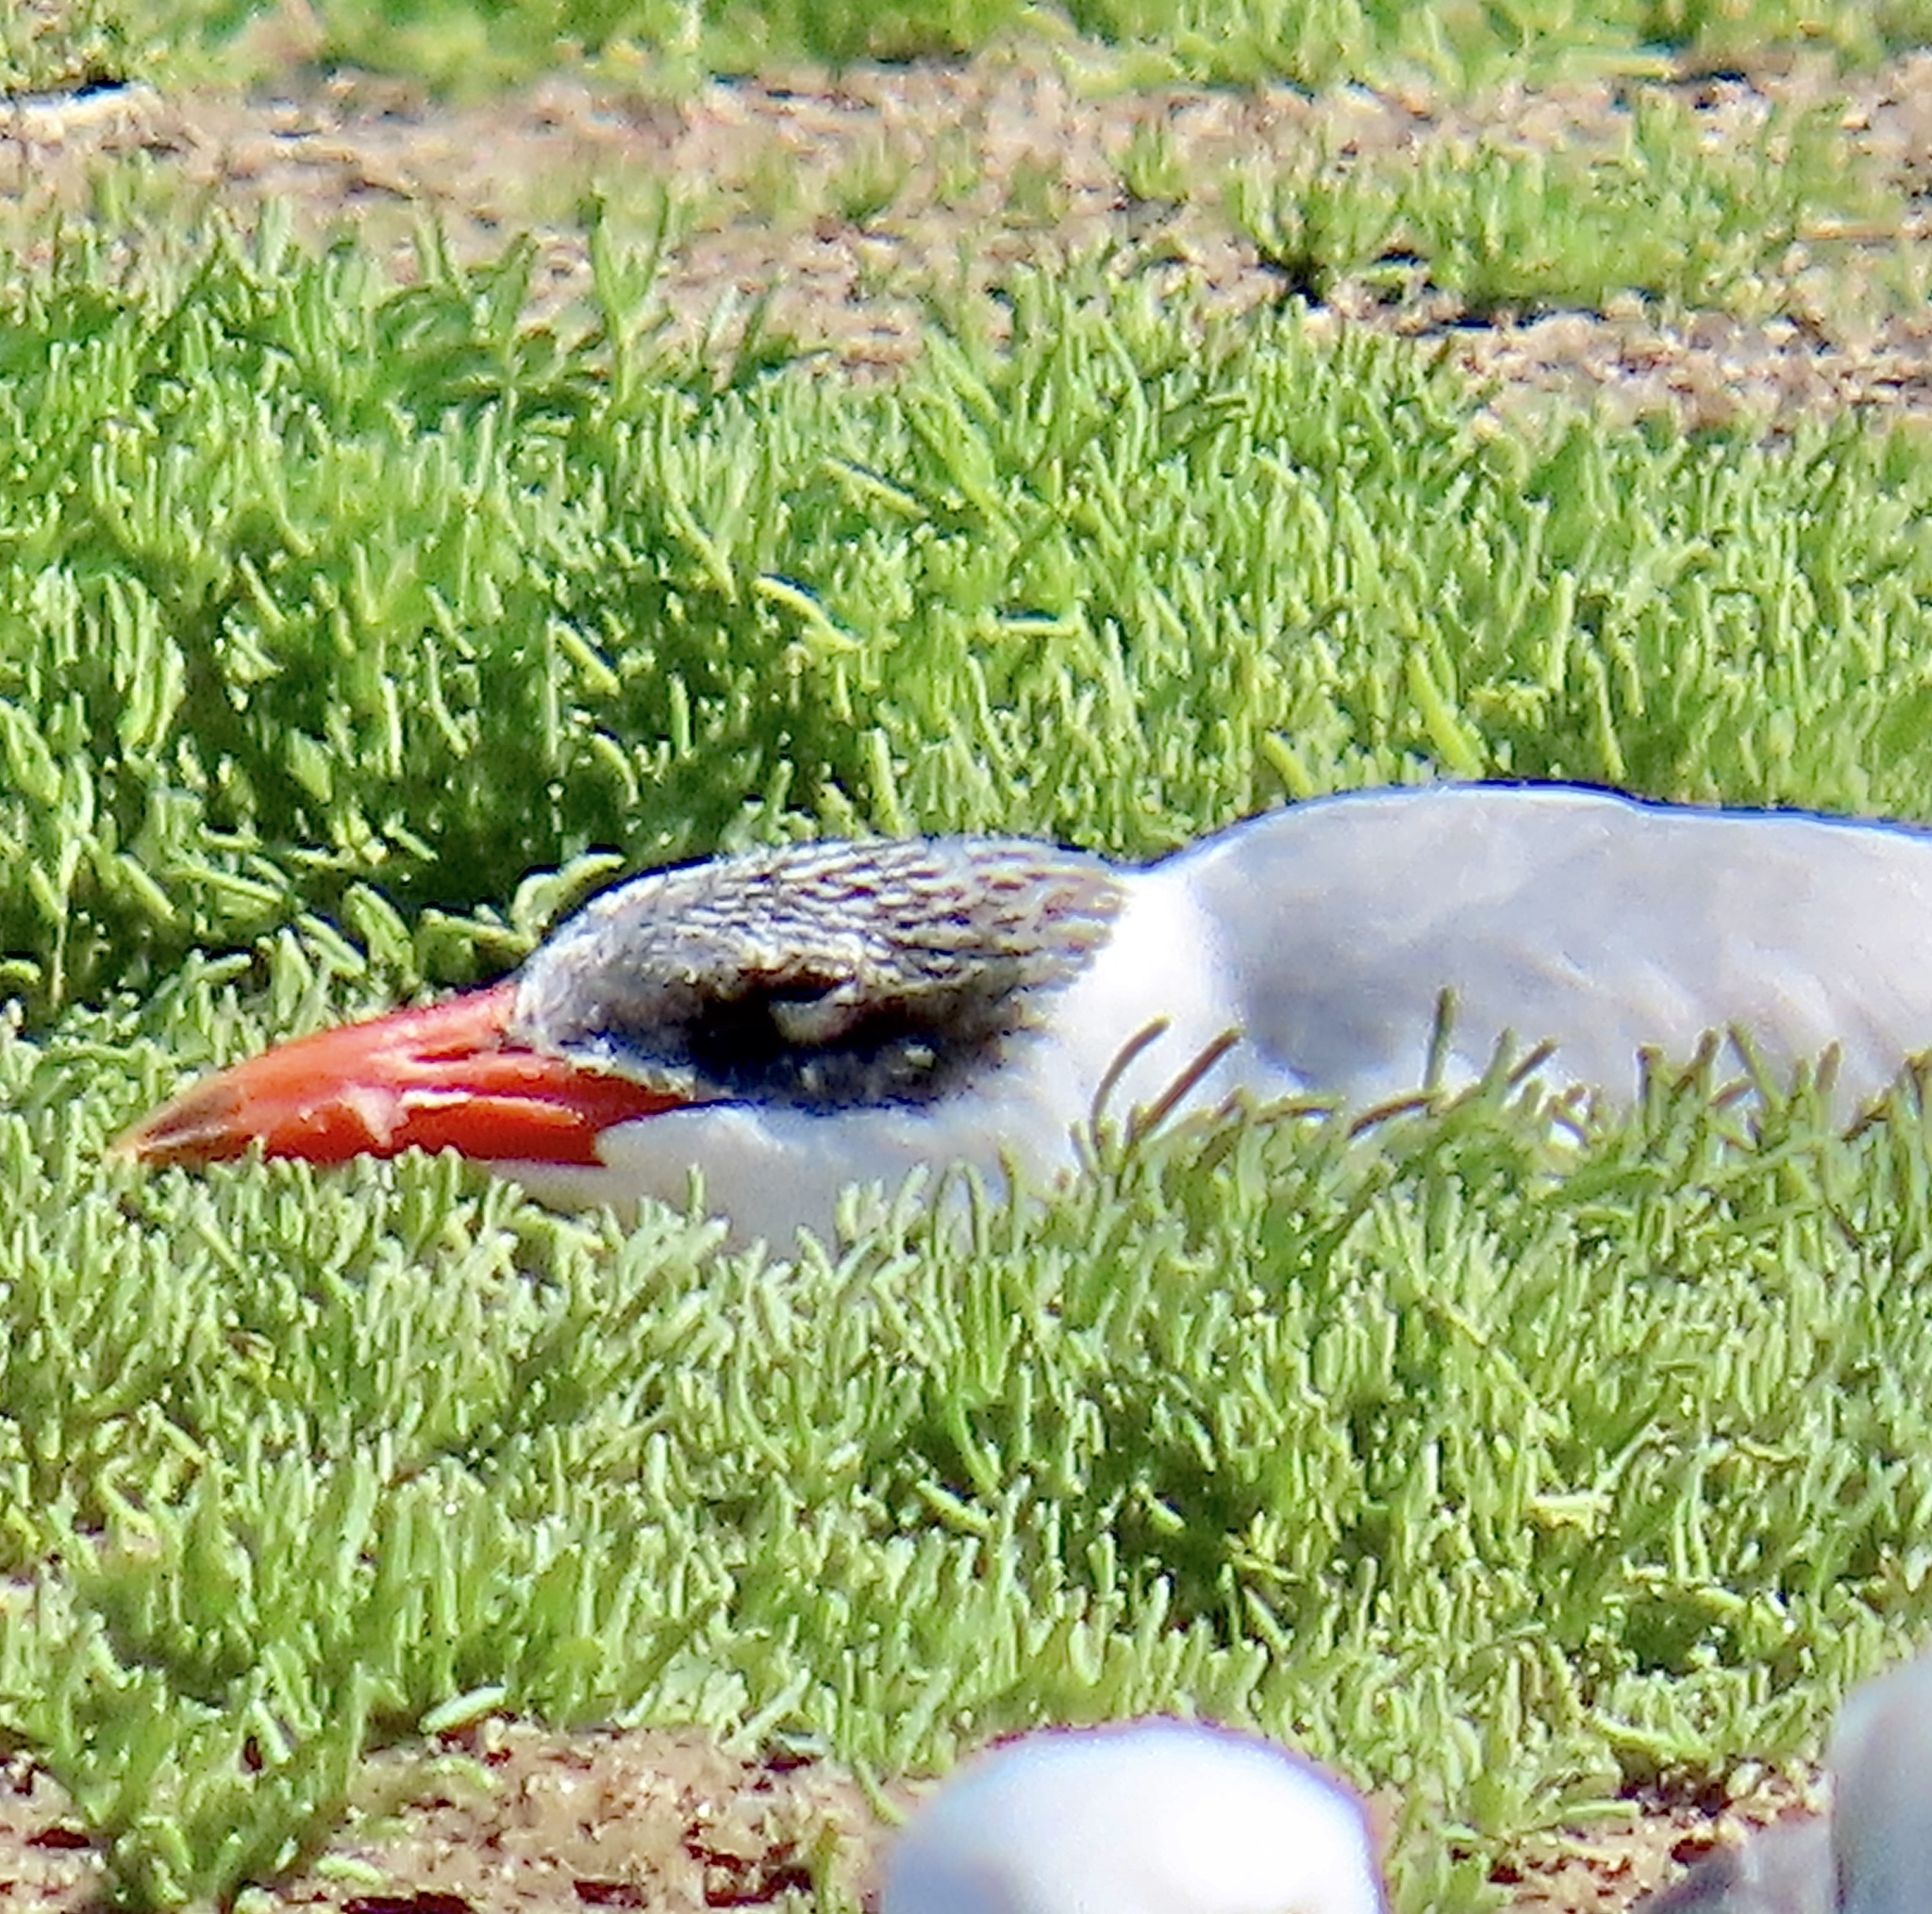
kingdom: Animalia
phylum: Chordata
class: Aves
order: Charadriiformes
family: Laridae
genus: Hydroprogne
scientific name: Hydroprogne caspia
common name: Caspian tern
